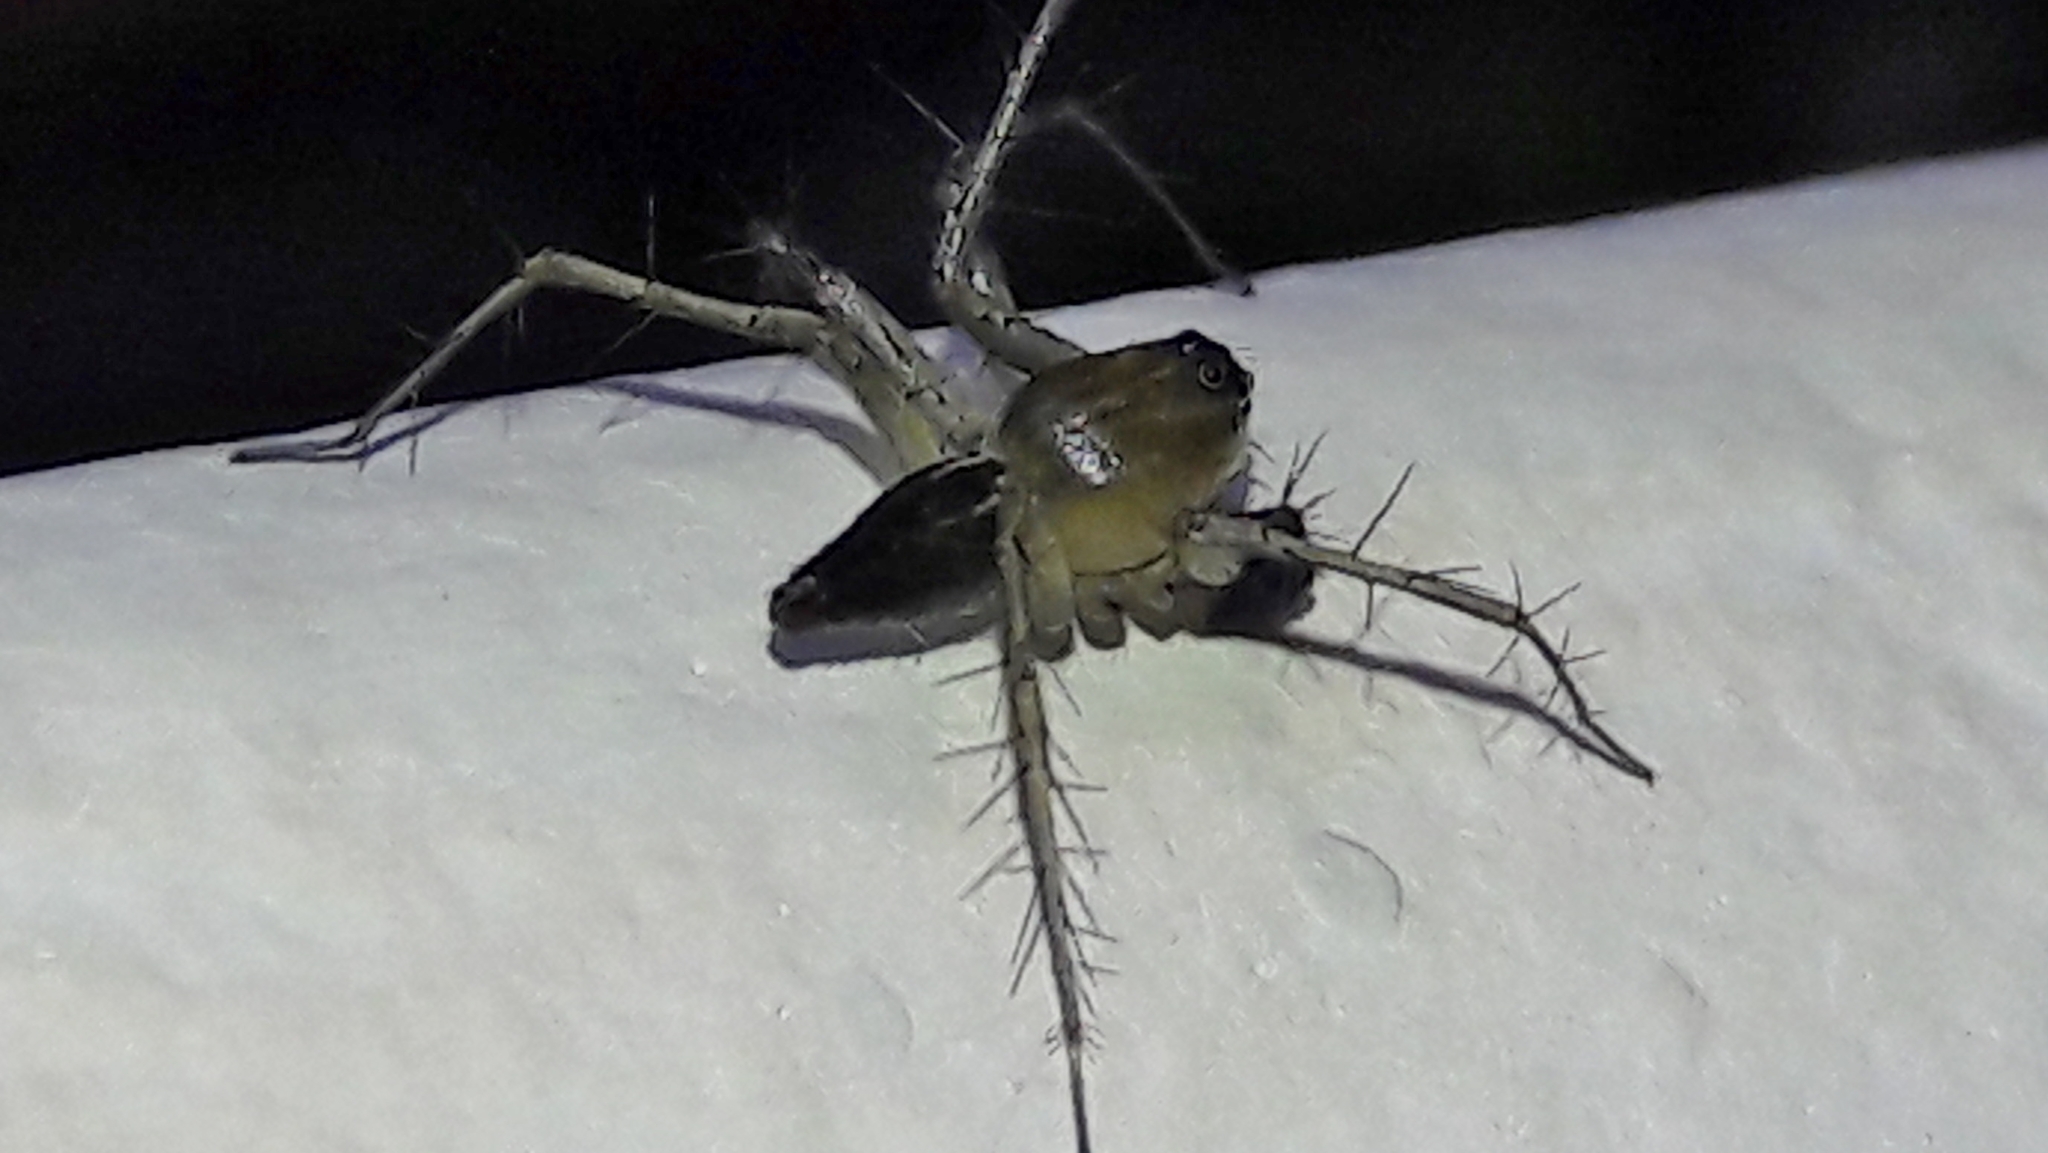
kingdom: Animalia
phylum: Arthropoda
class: Arachnida
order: Araneae
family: Oxyopidae
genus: Oxyopes
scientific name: Oxyopes salticus
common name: Lynx spiders
